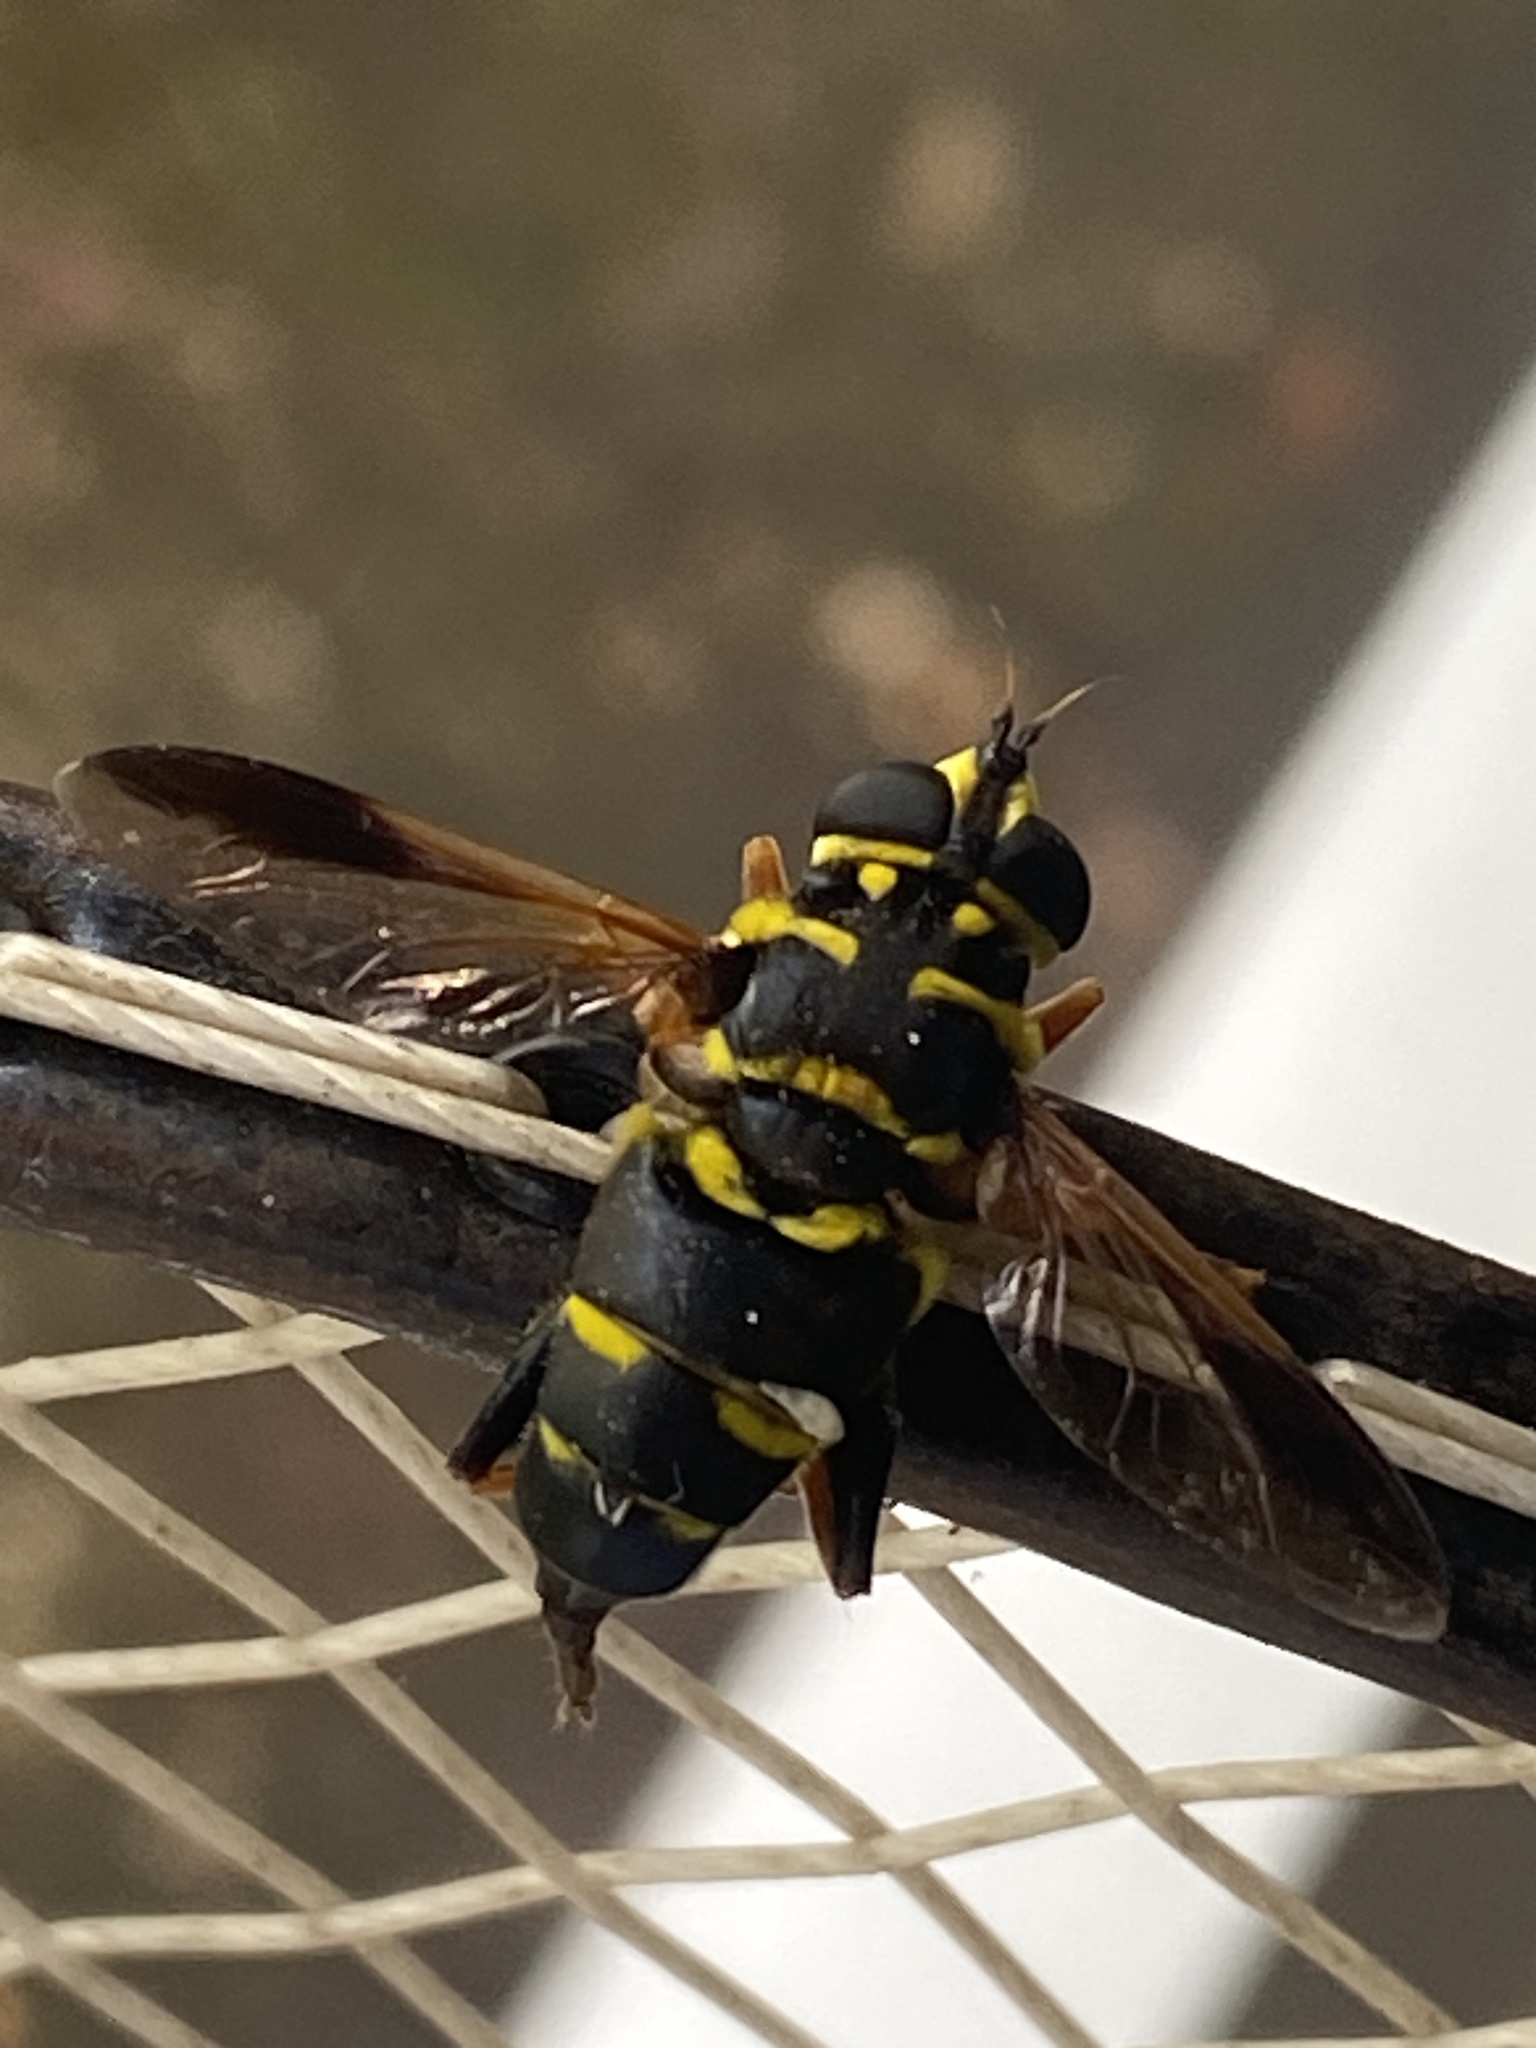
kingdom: Animalia
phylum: Arthropoda
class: Insecta
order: Diptera
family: Syrphidae
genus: Meromacrus
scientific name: Meromacrus acutus
